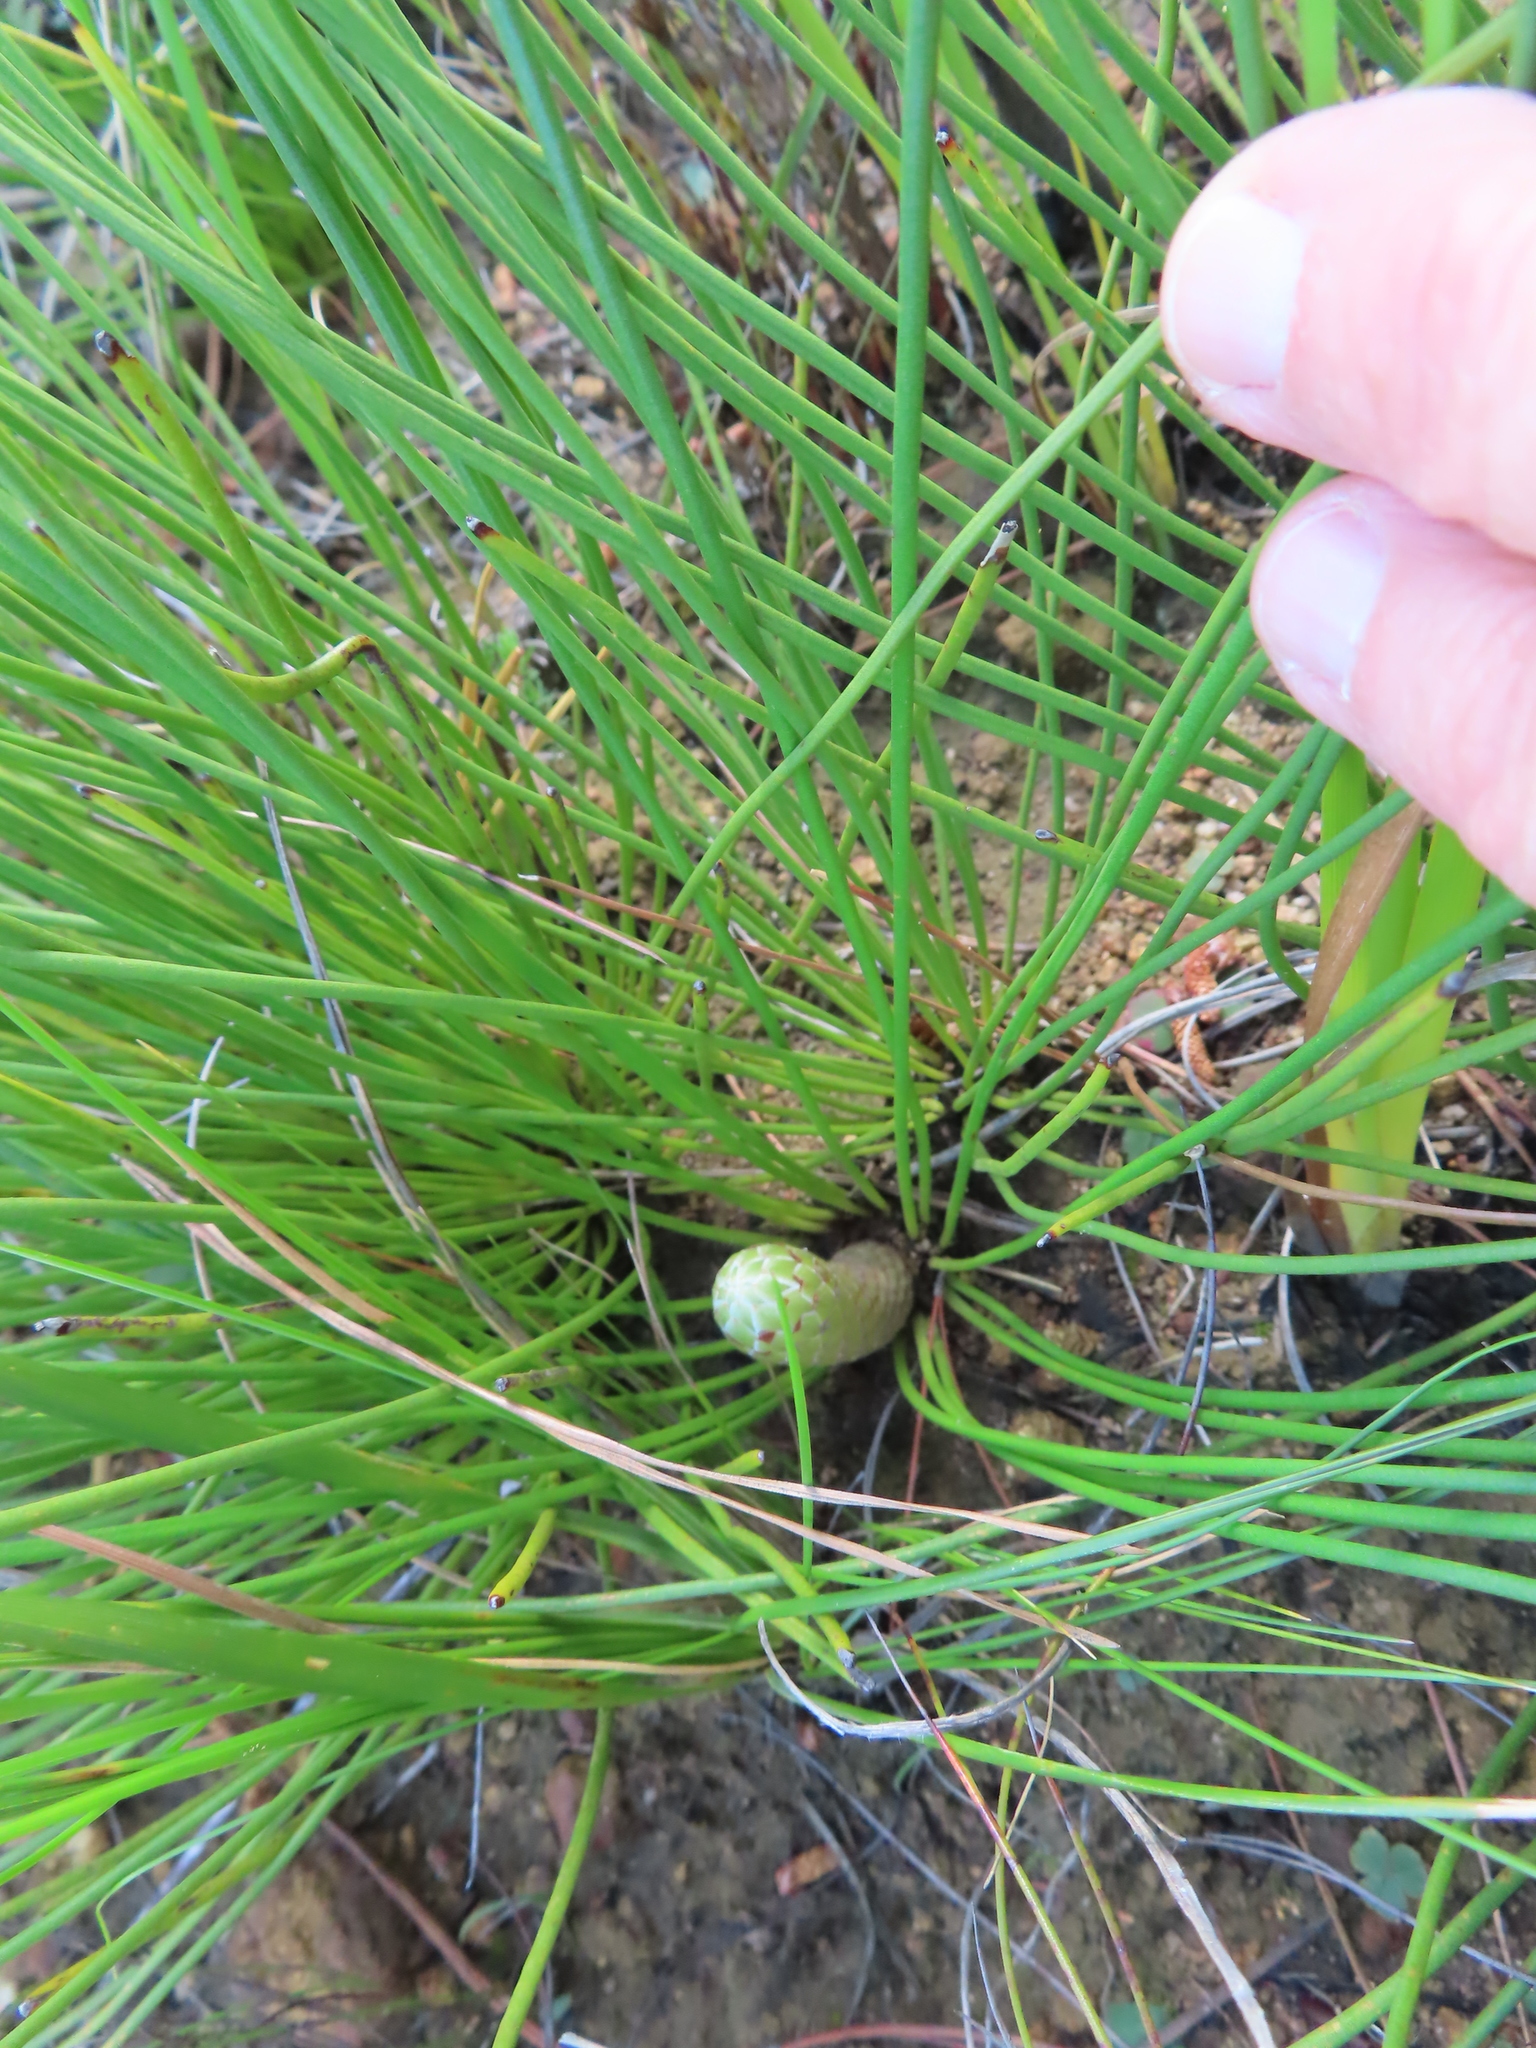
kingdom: Plantae
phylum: Tracheophyta
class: Magnoliopsida
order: Proteales
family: Proteaceae
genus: Protea
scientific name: Protea lorea
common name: Thong-leaf sugarbush
